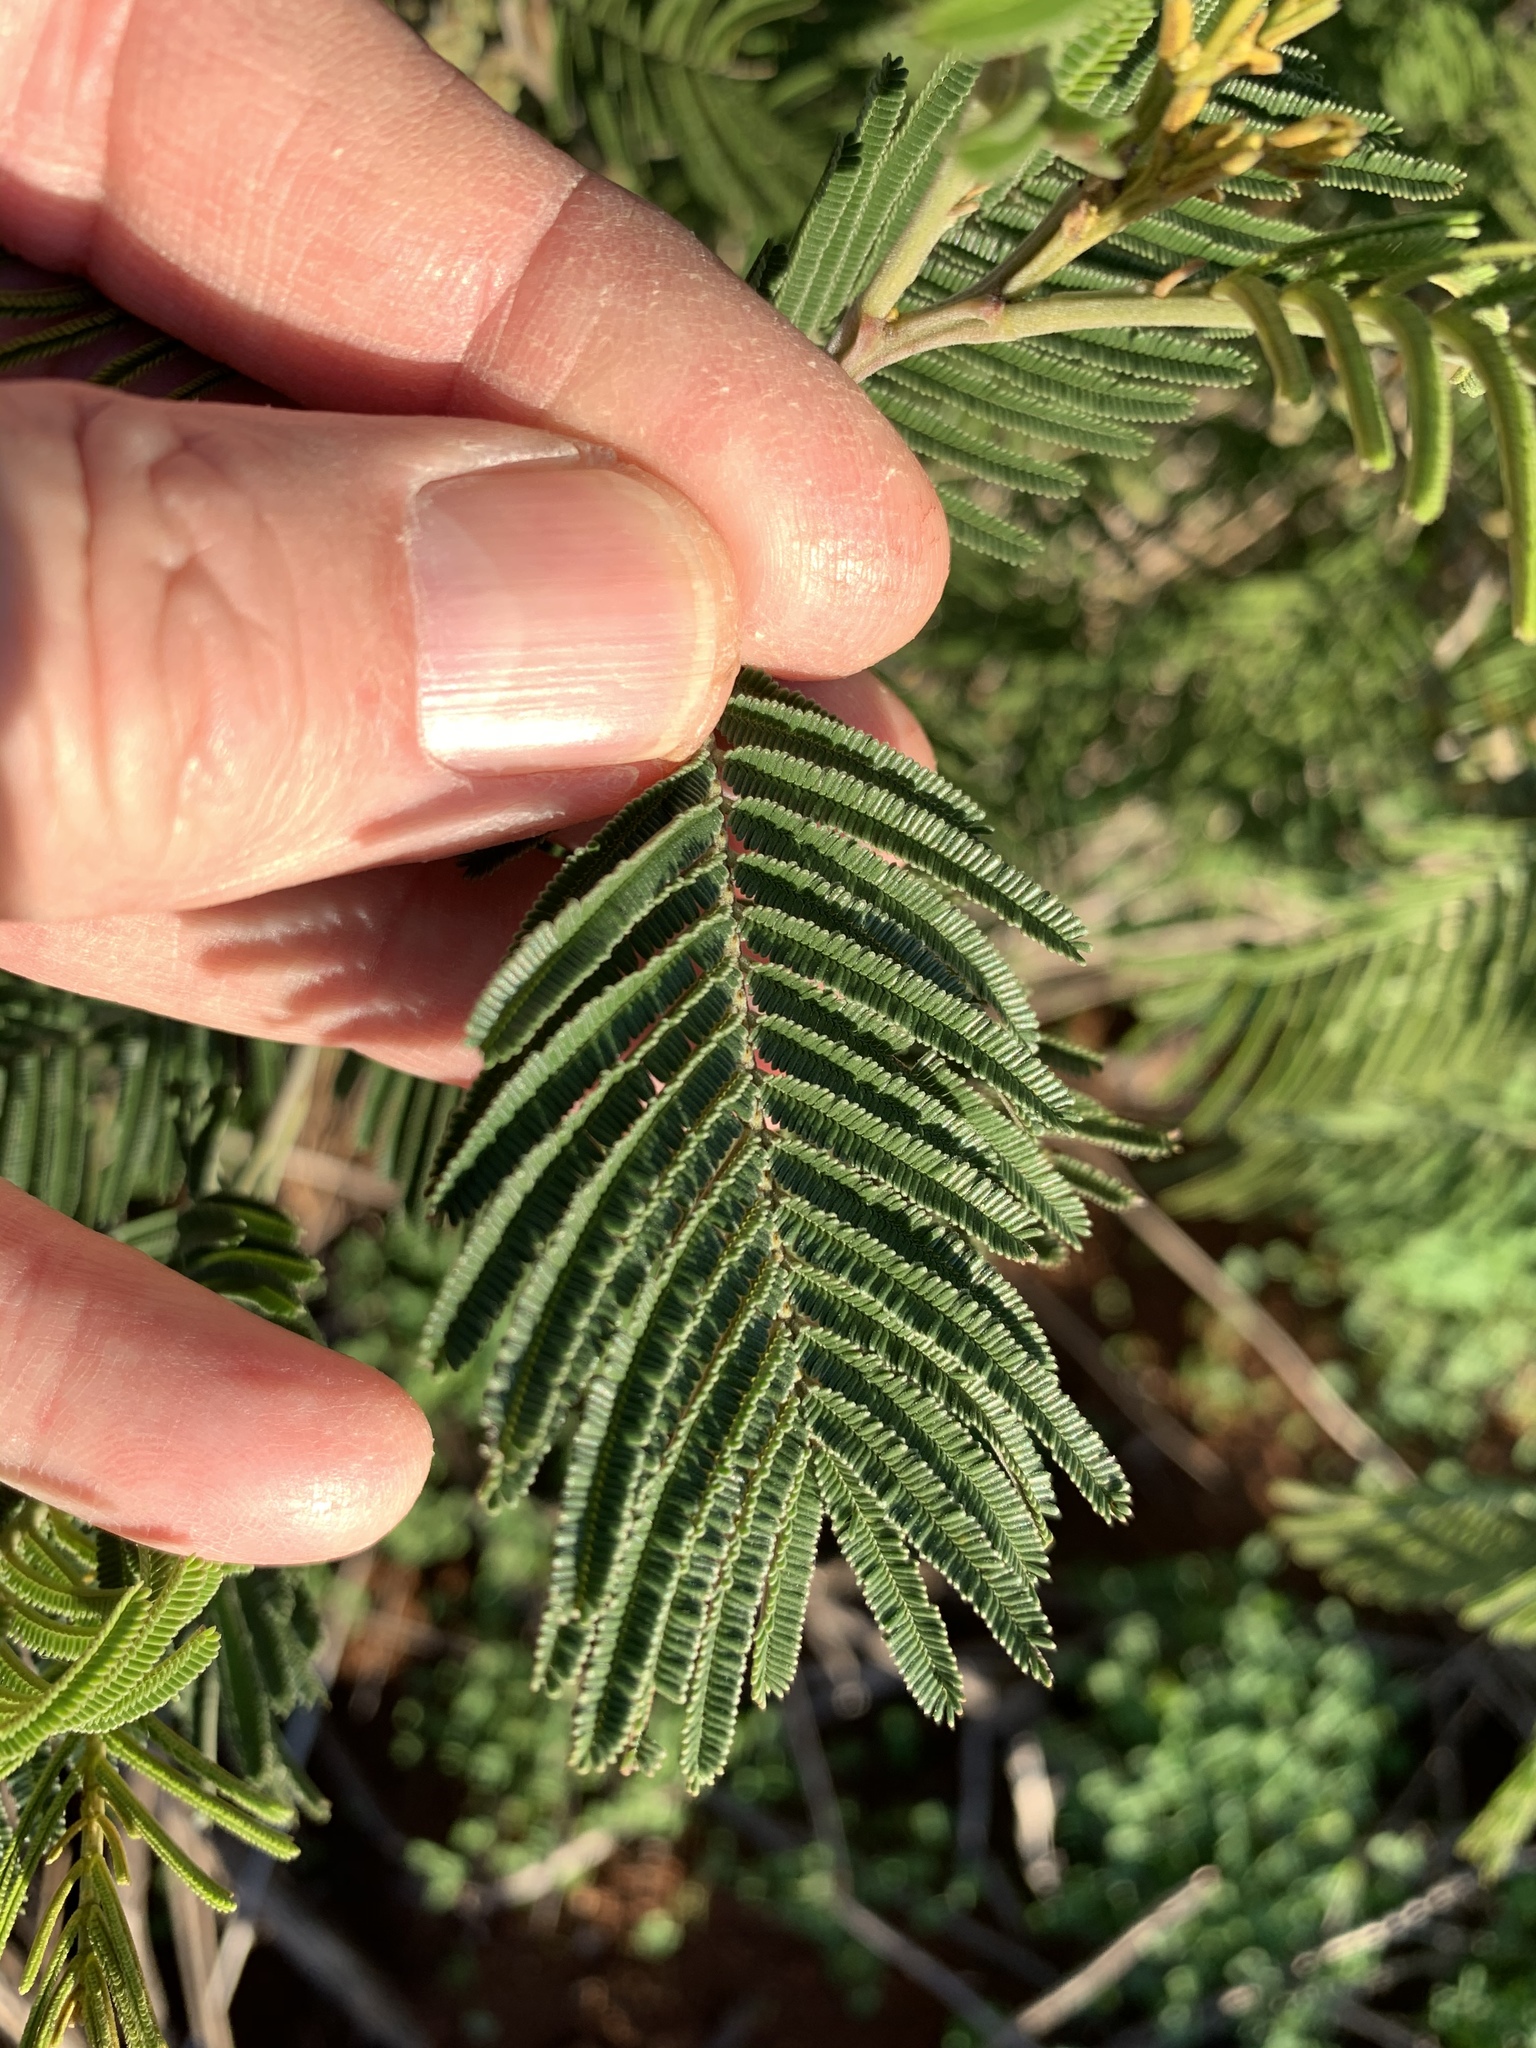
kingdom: Plantae
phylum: Tracheophyta
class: Magnoliopsida
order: Fabales
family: Fabaceae
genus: Acacia
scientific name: Acacia mearnsii
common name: Black wattle
